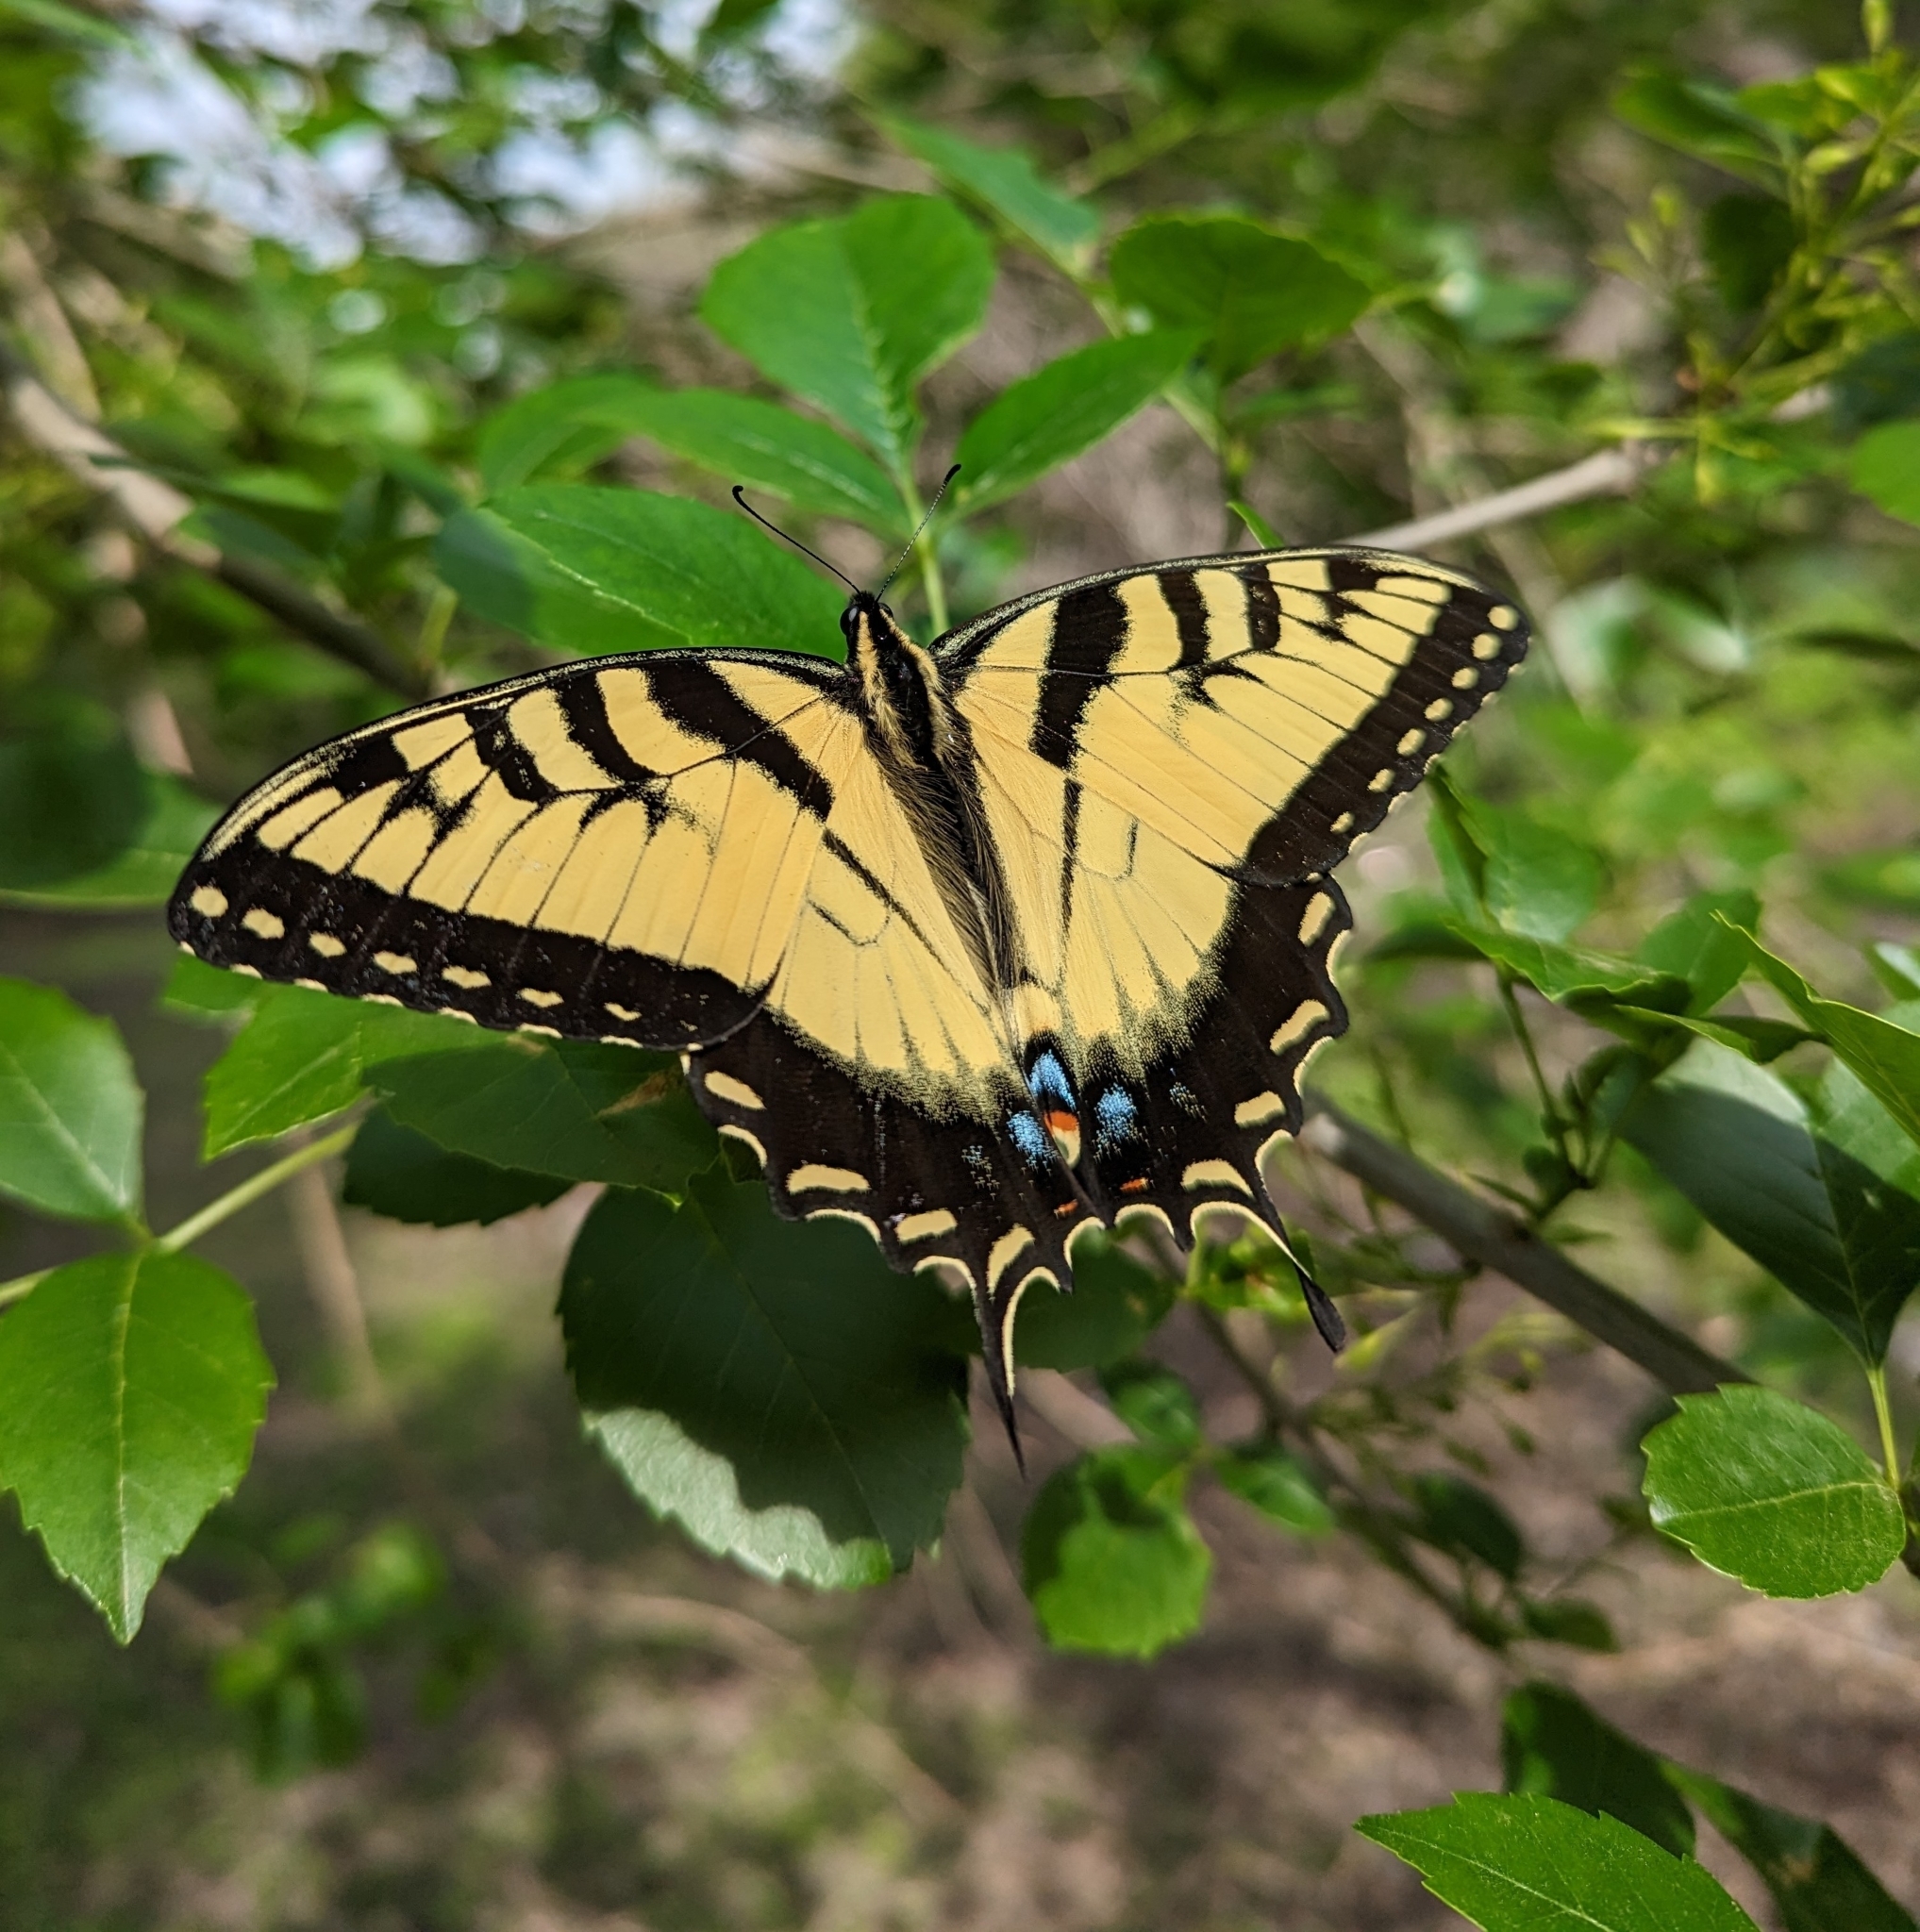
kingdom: Animalia
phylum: Arthropoda
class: Insecta
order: Lepidoptera
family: Papilionidae
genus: Papilio
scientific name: Papilio glaucus
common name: Tiger swallowtail
